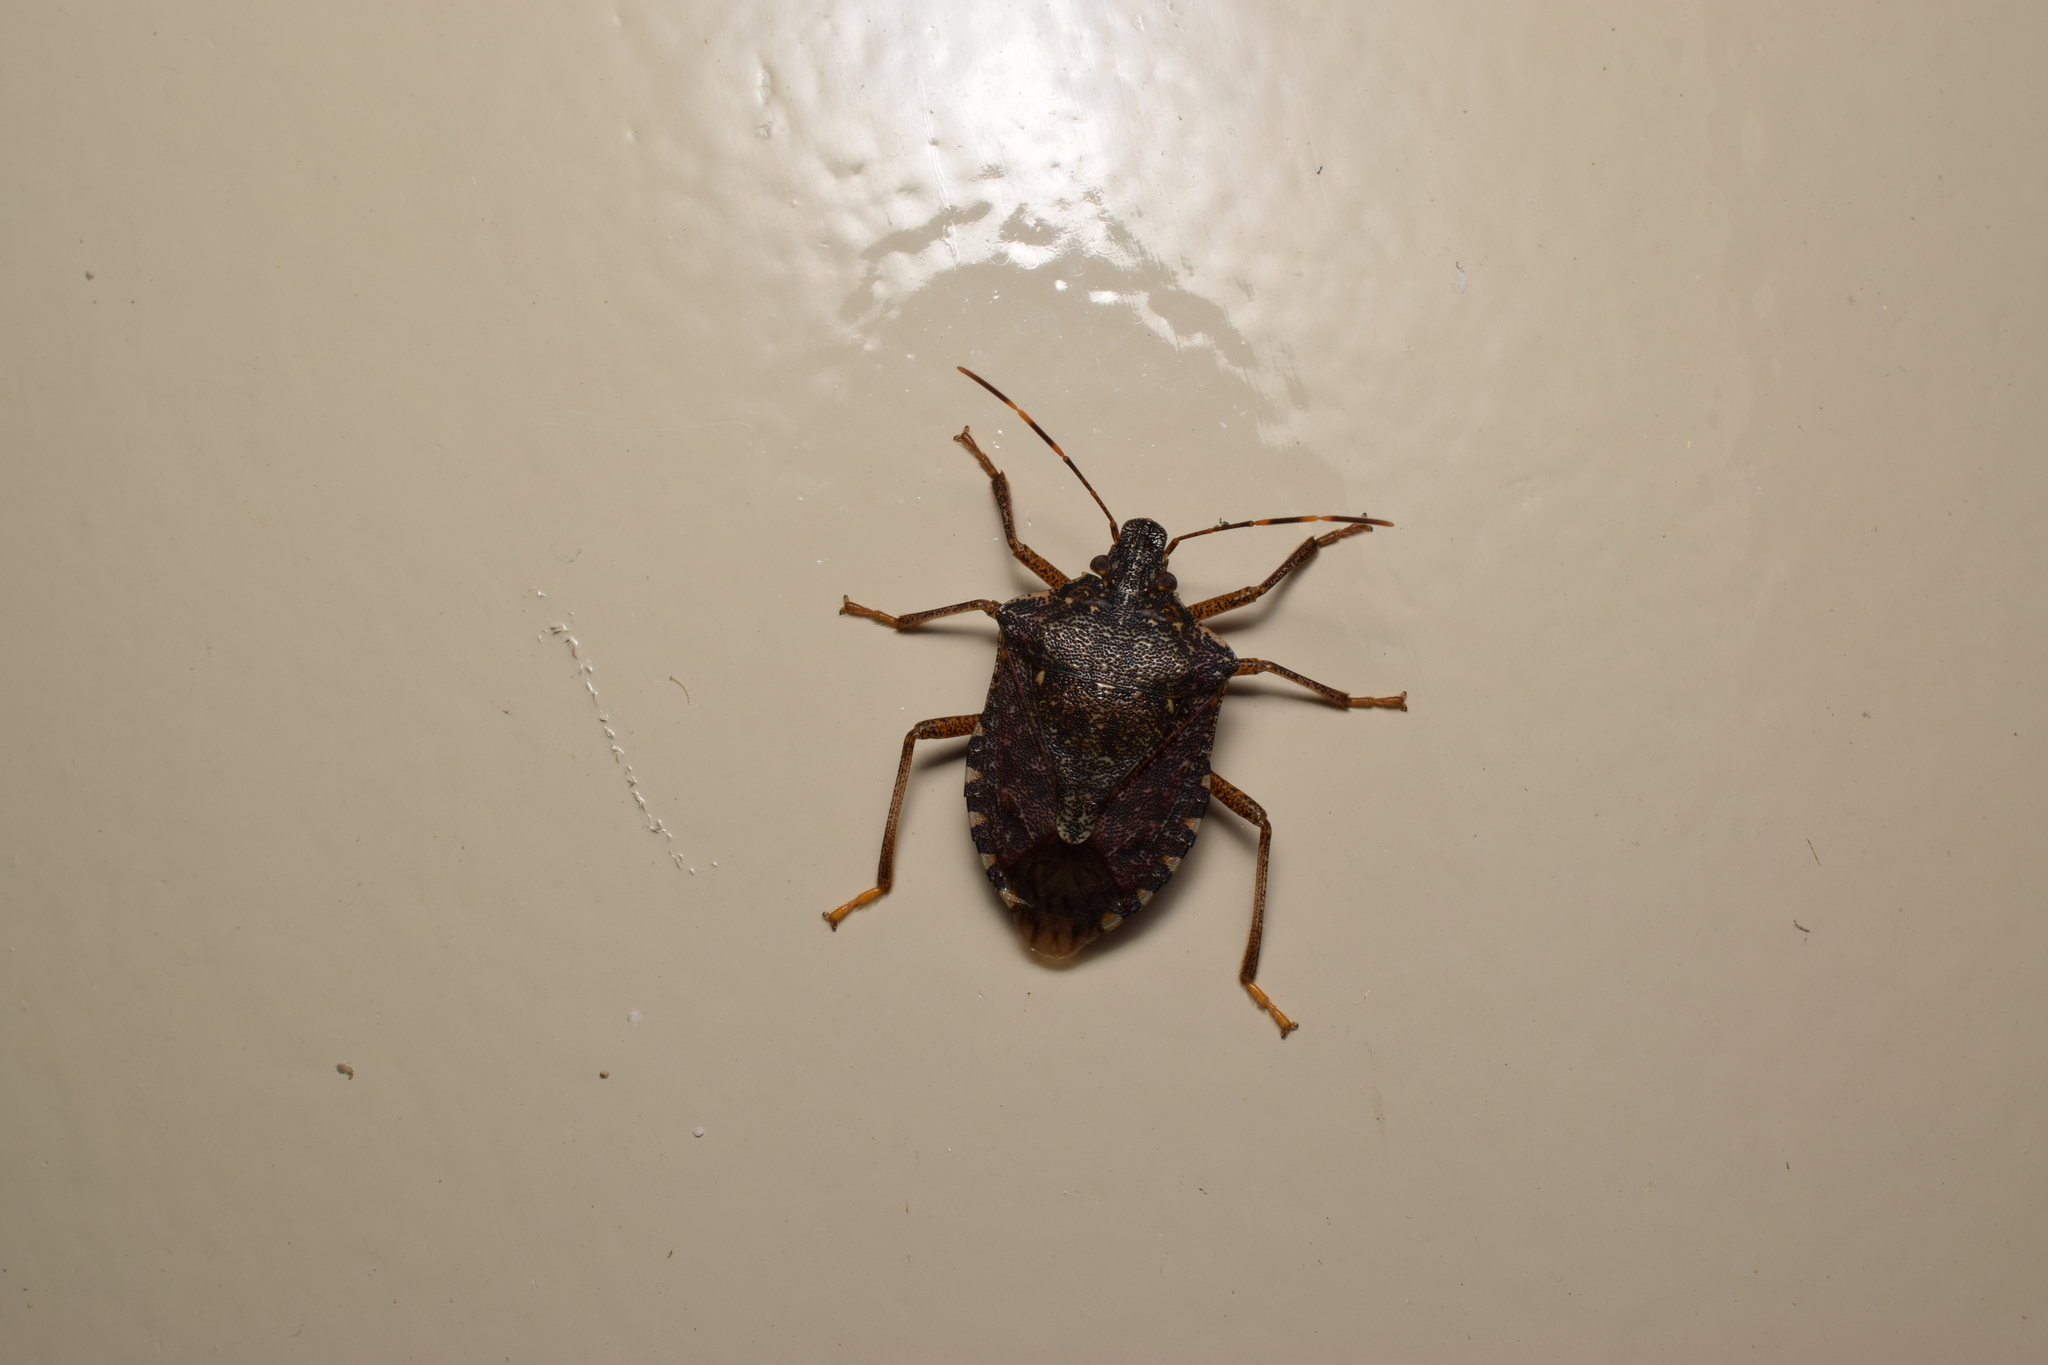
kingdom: Animalia
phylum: Arthropoda
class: Insecta
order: Hemiptera
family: Pentatomidae
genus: Halyomorpha
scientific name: Halyomorpha halys
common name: Brown marmorated stink bug
